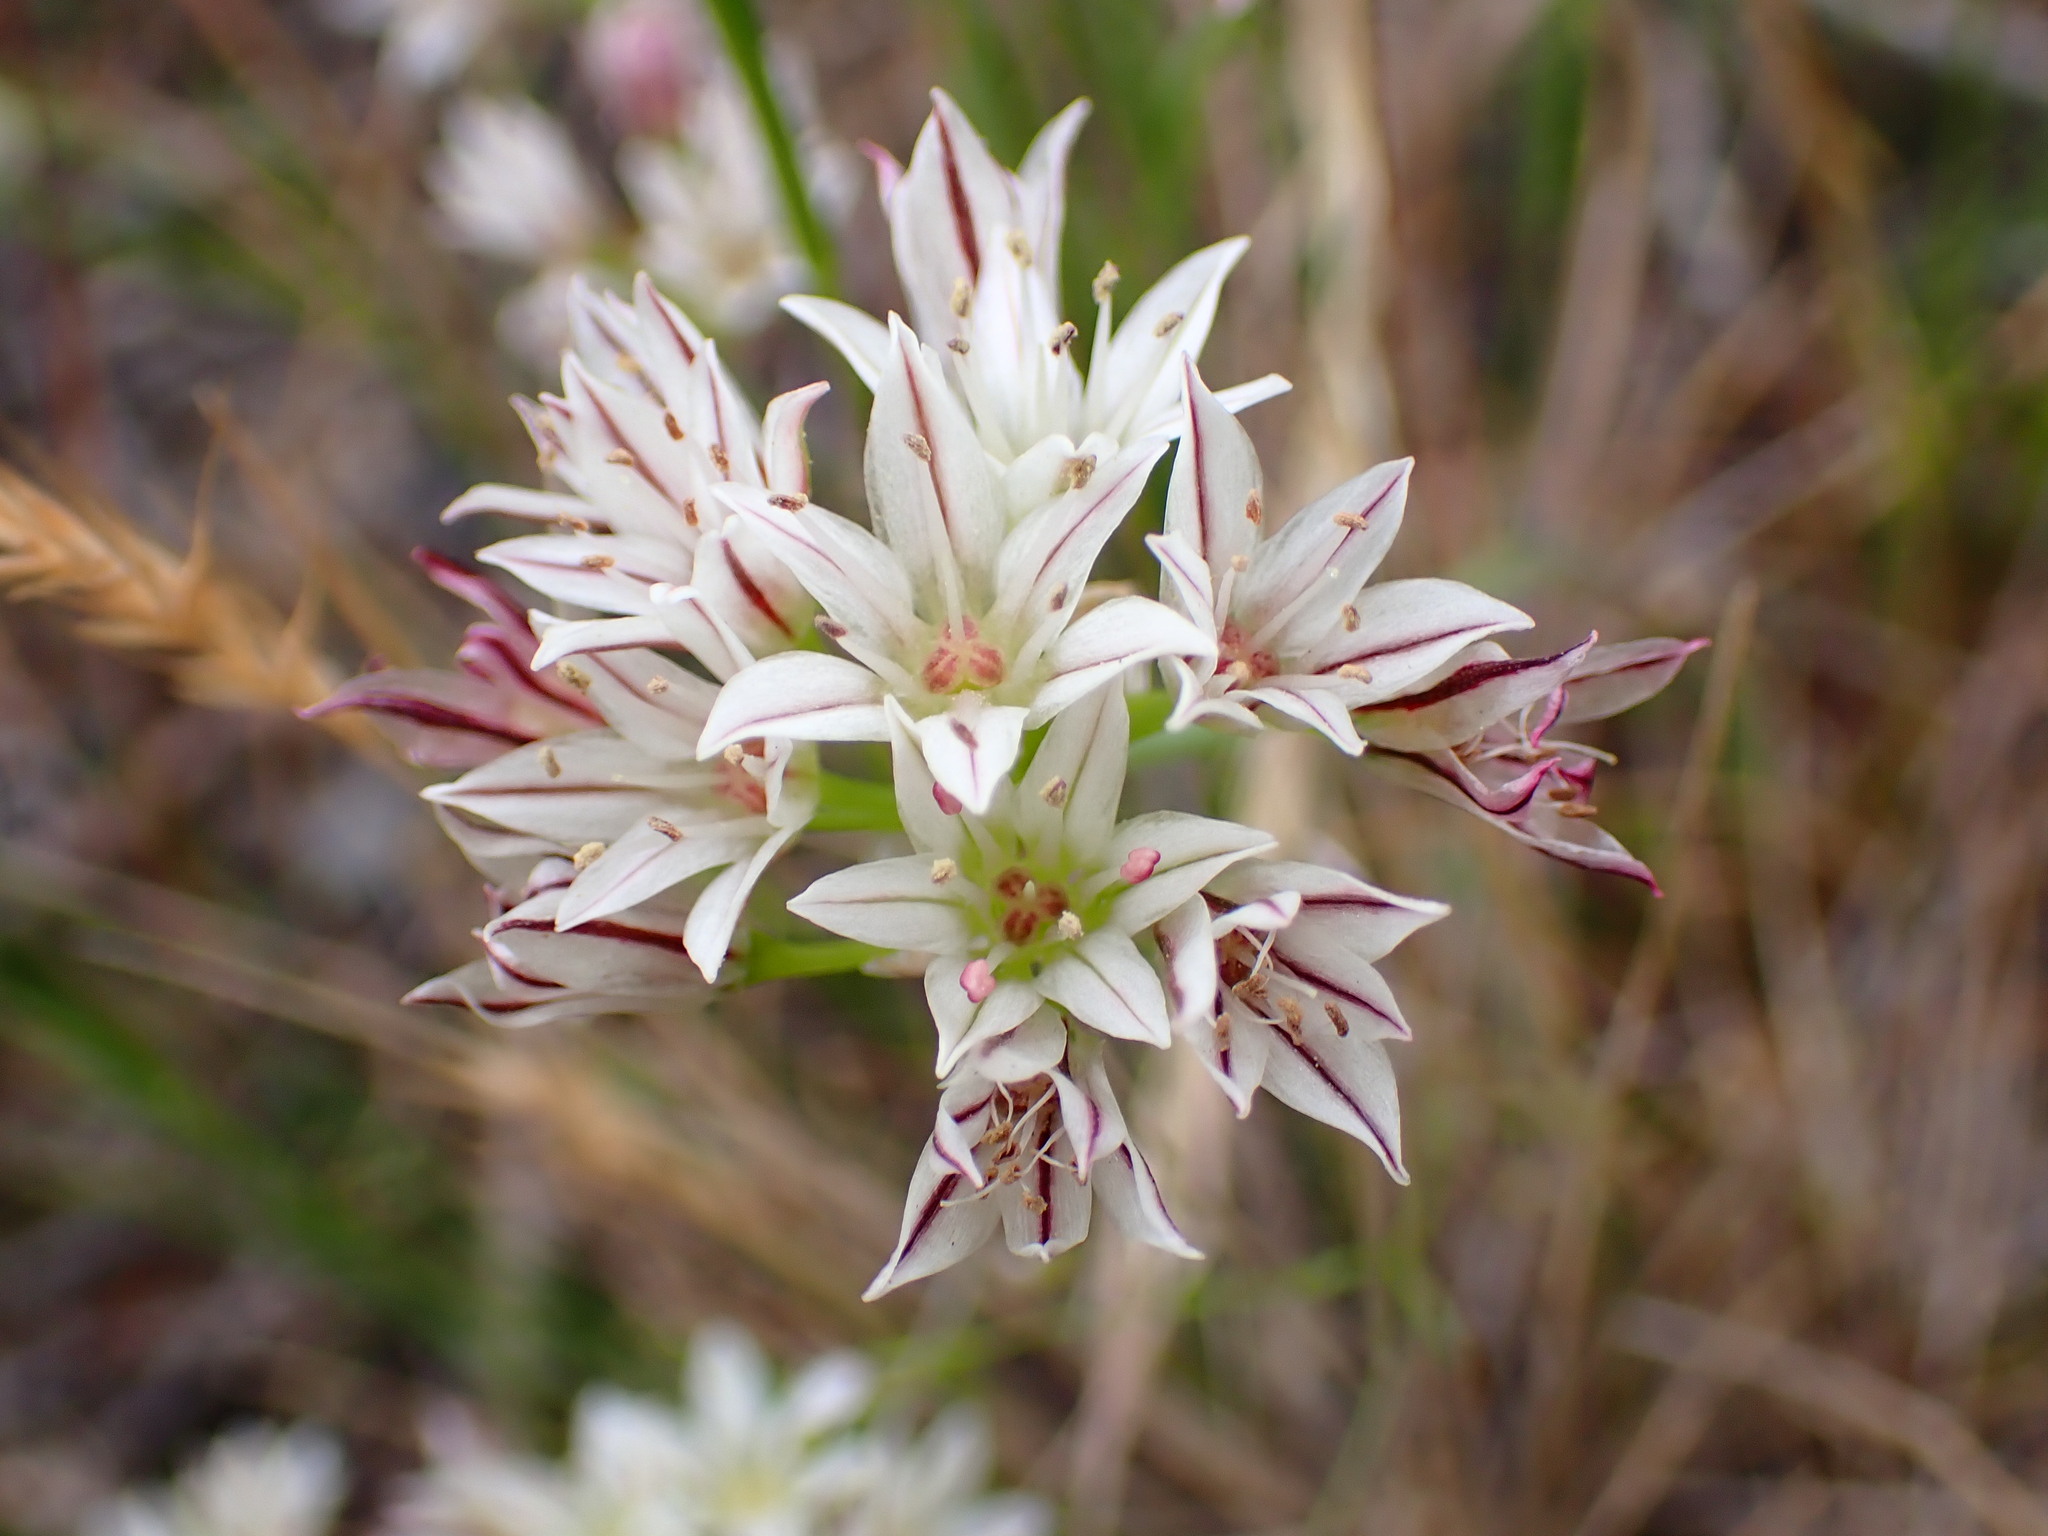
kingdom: Plantae
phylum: Tracheophyta
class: Liliopsida
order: Asparagales
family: Amaryllidaceae
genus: Allium
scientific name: Allium lacunosum
